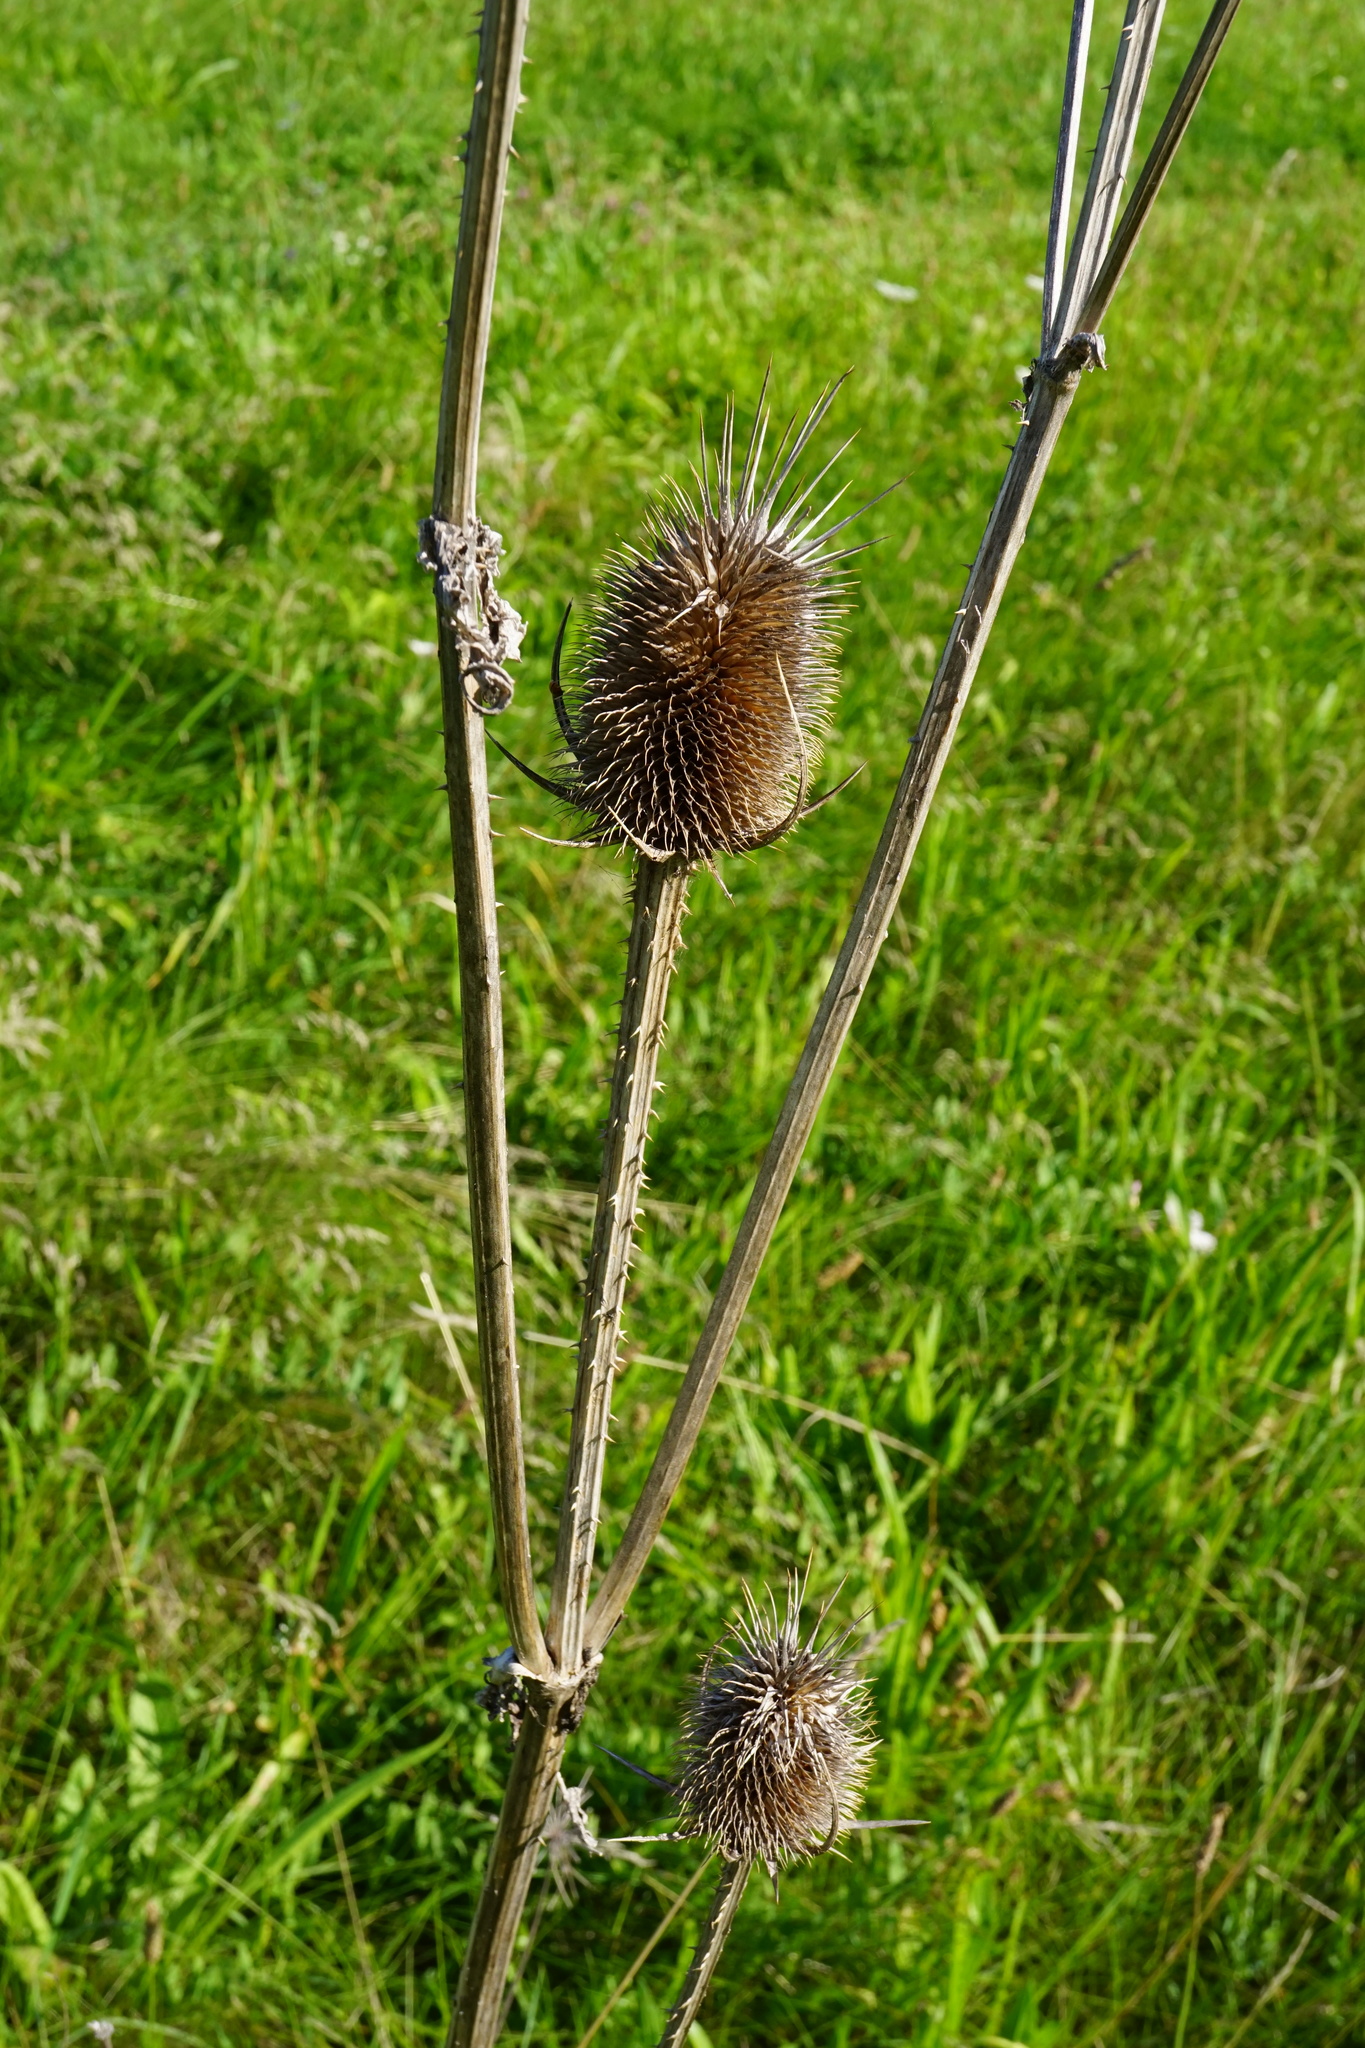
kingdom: Plantae
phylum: Tracheophyta
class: Magnoliopsida
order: Dipsacales
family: Caprifoliaceae
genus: Dipsacus
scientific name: Dipsacus laciniatus
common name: Cut-leaved teasel
